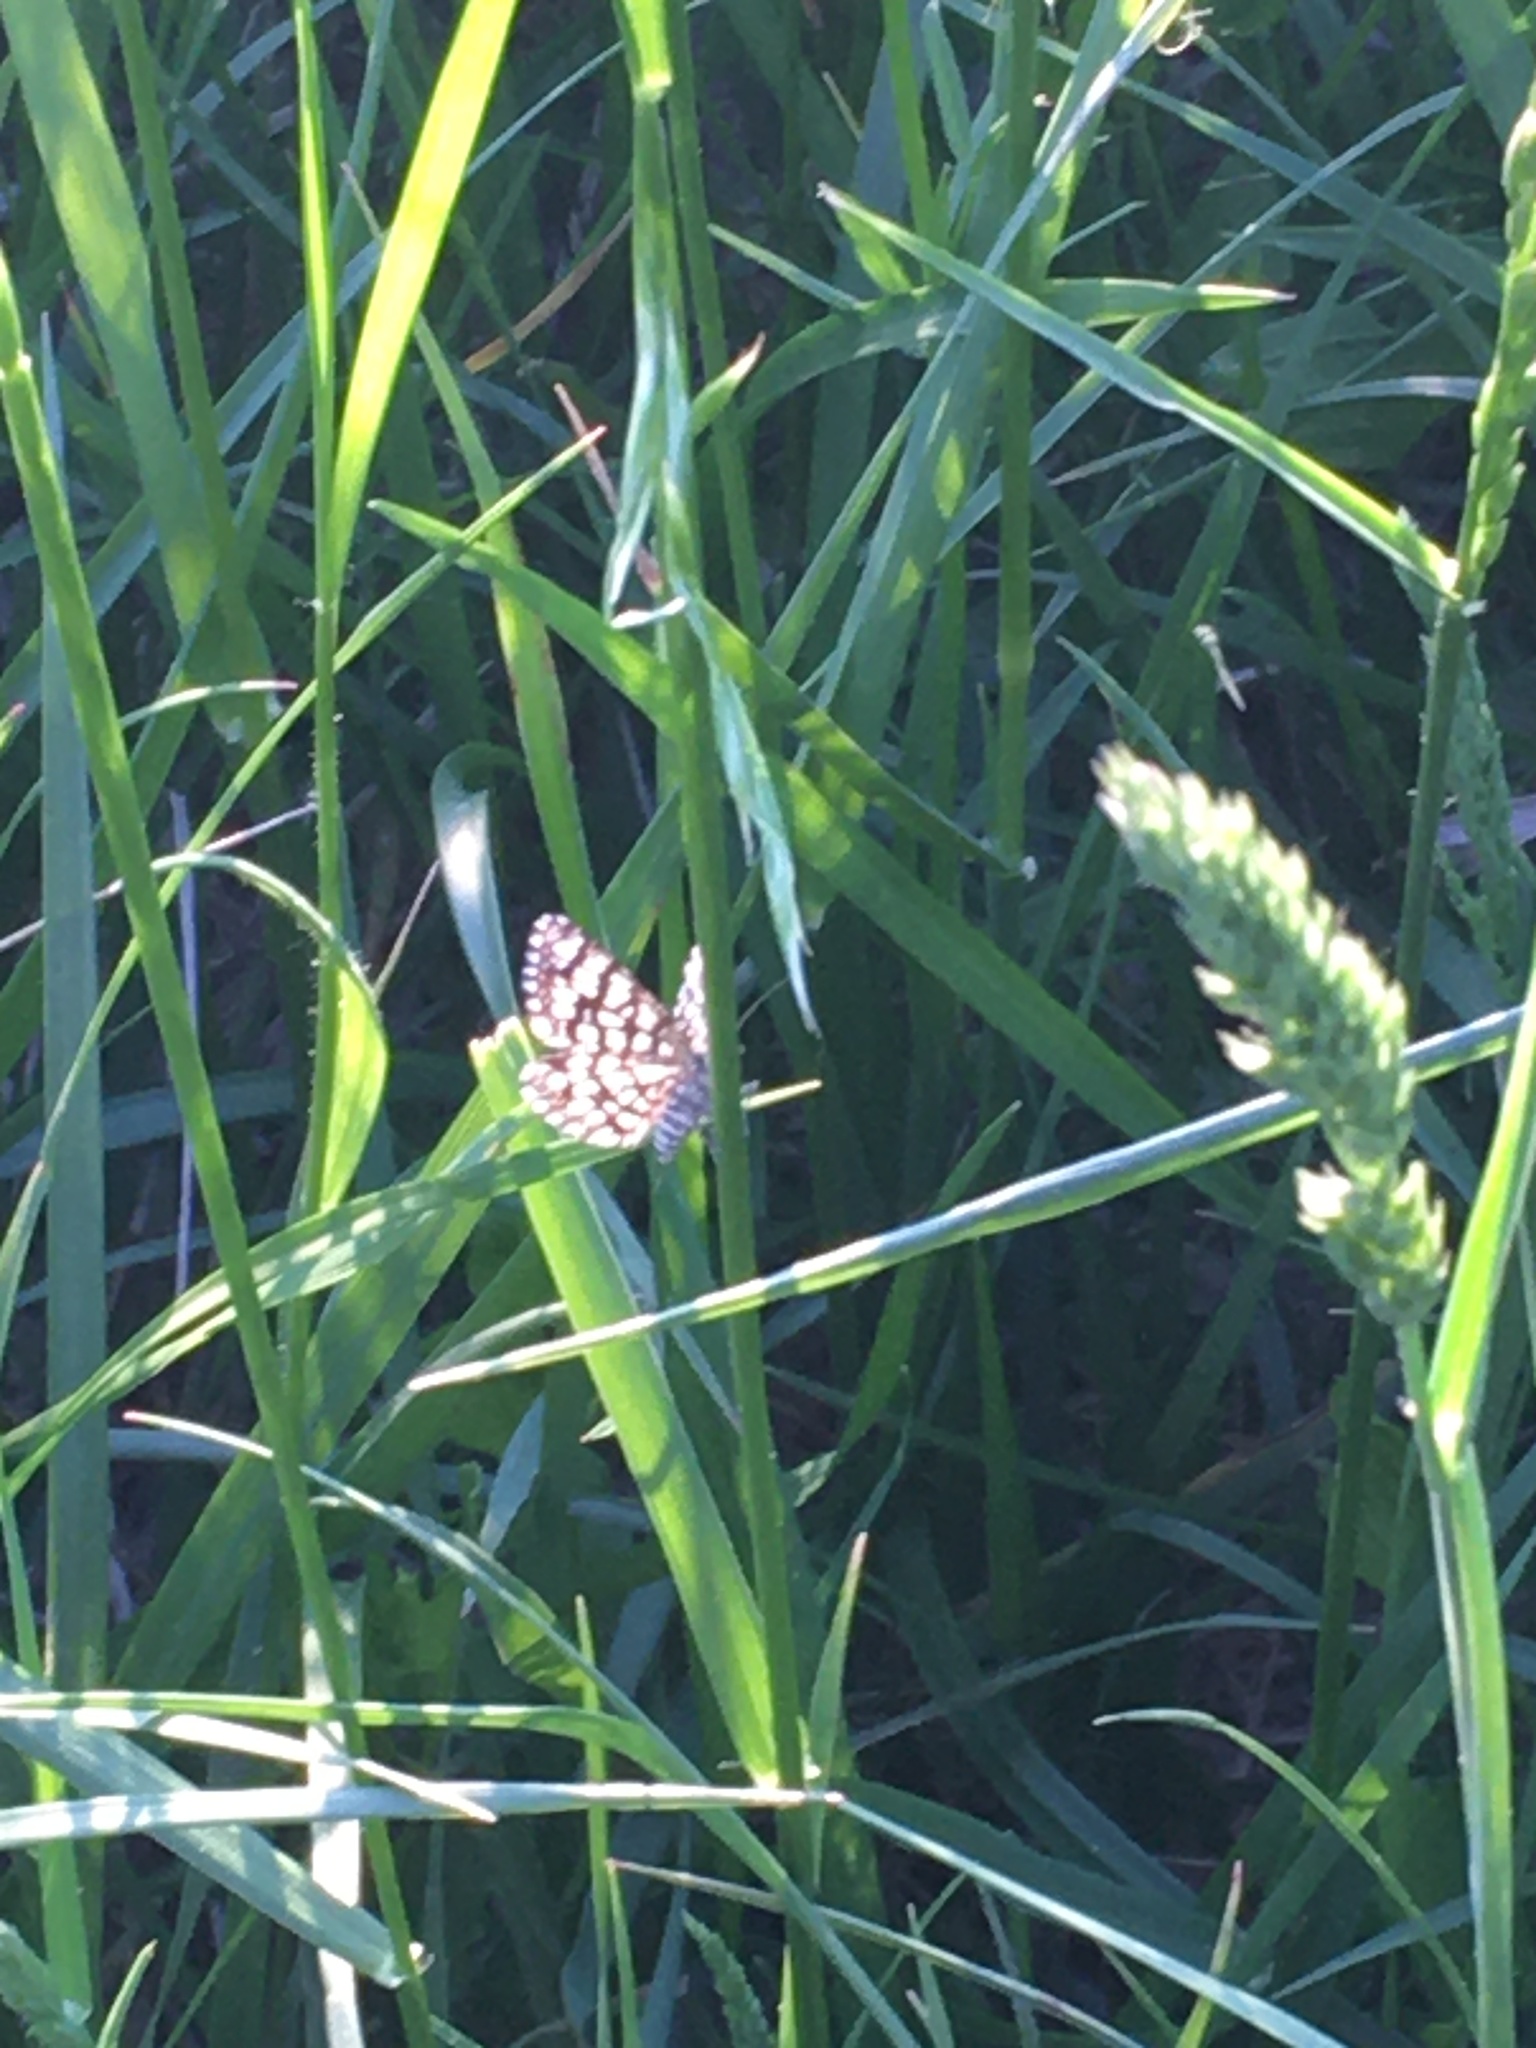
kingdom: Animalia
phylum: Arthropoda
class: Insecta
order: Lepidoptera
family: Geometridae
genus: Chiasmia
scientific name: Chiasmia clathrata
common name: Latticed heath
